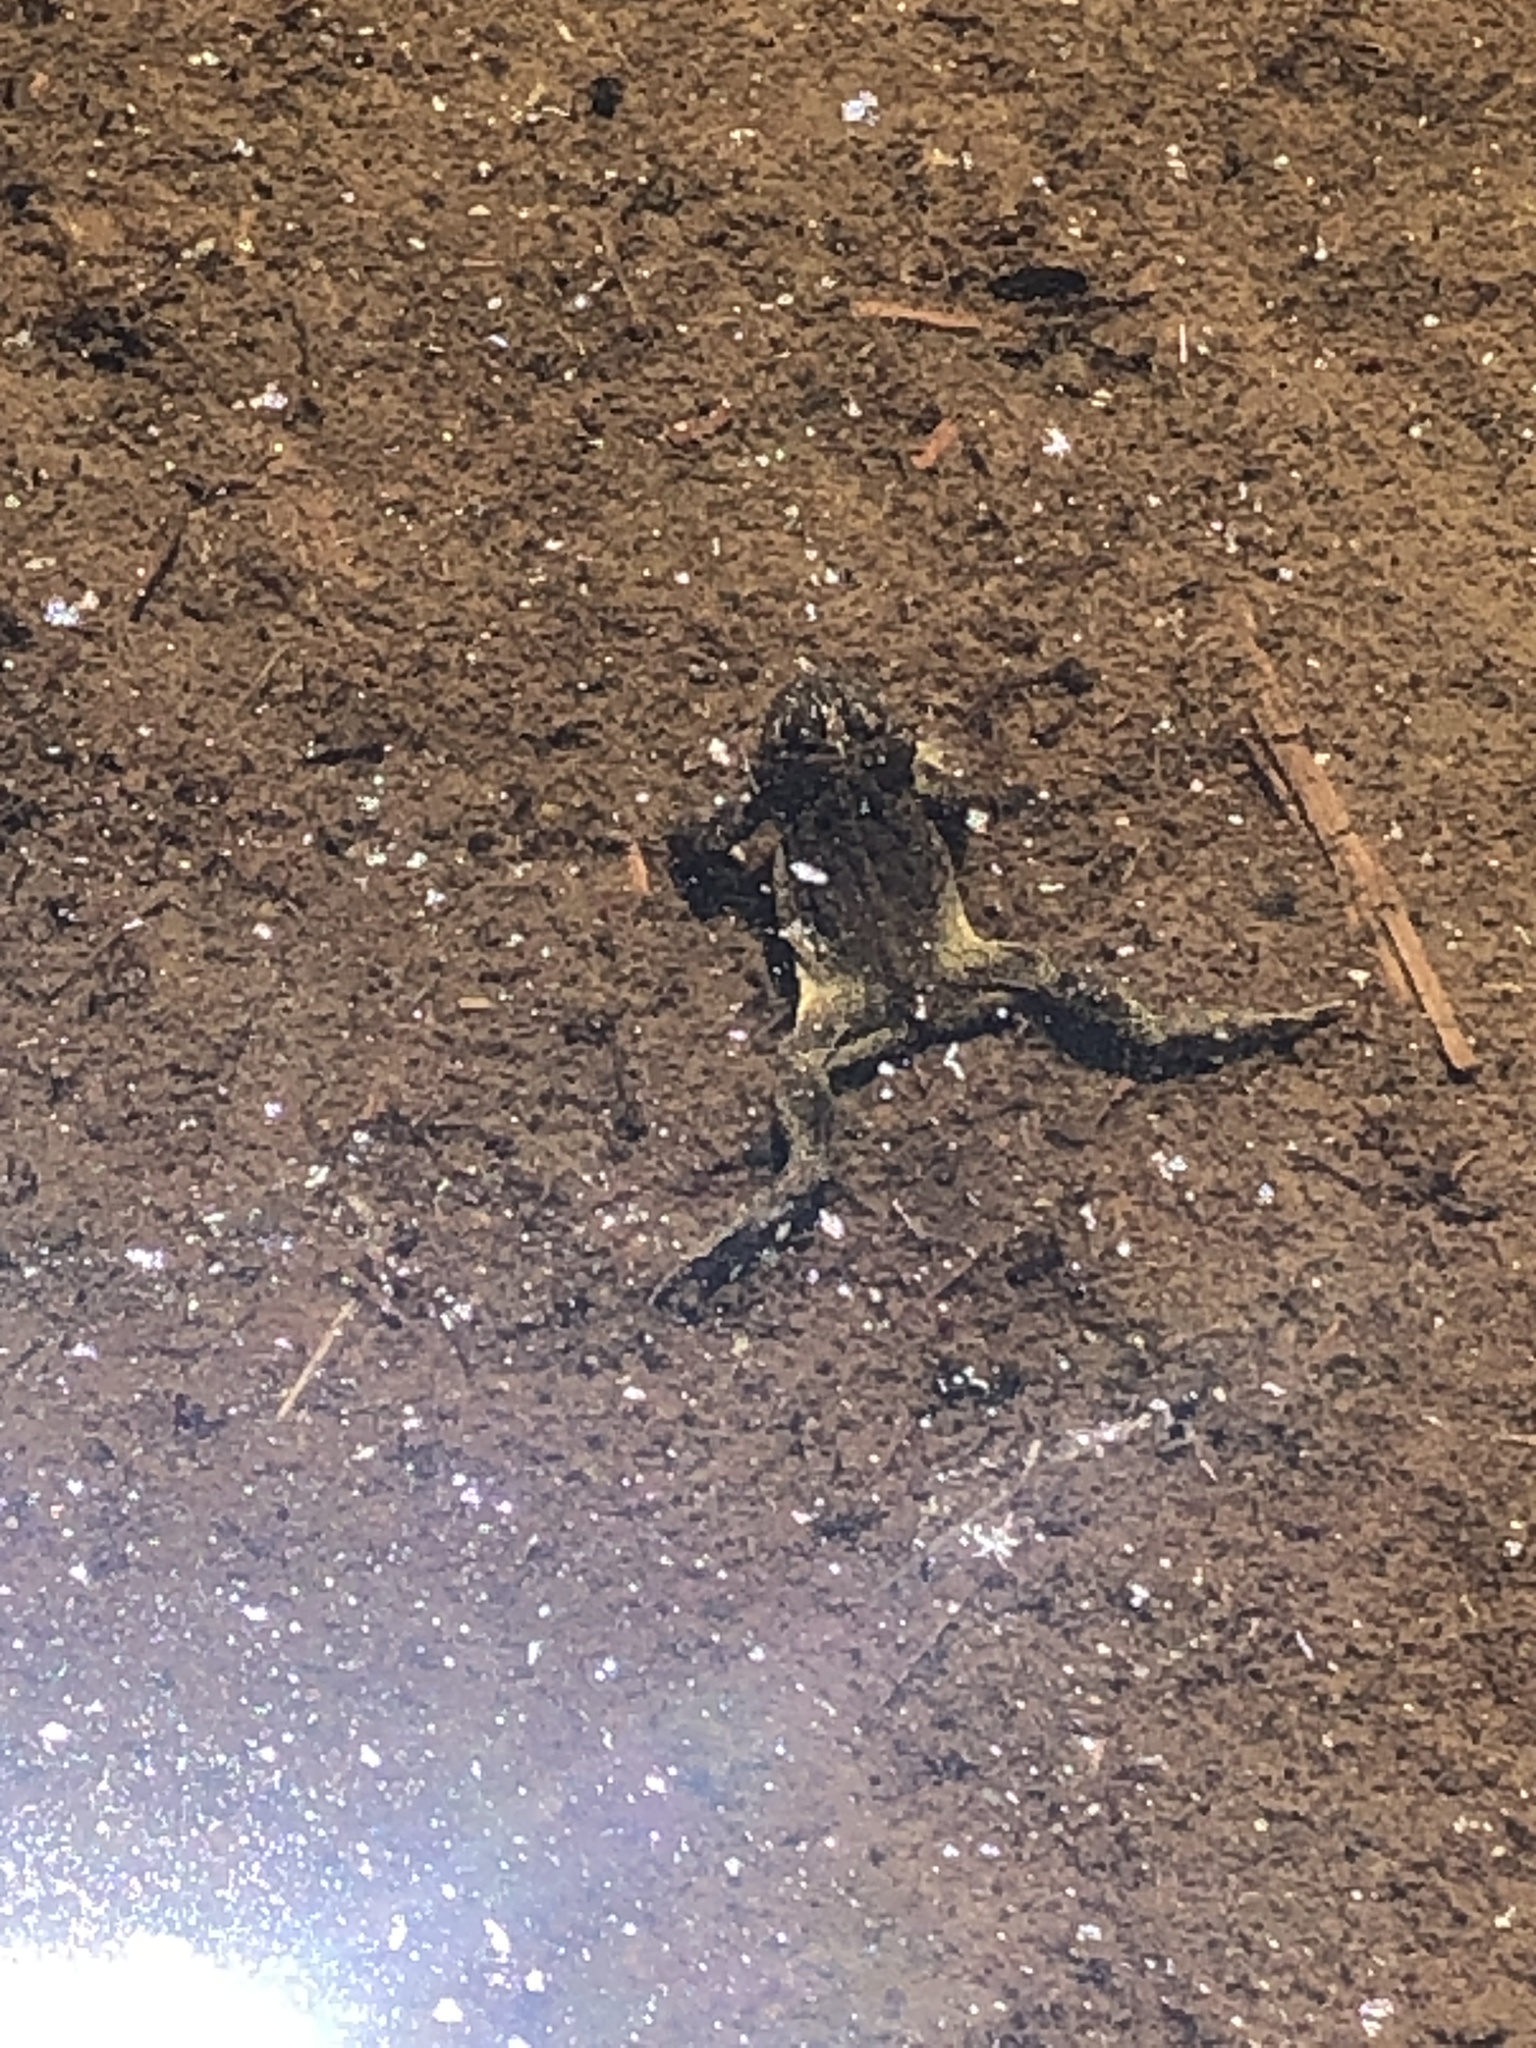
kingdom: Animalia
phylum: Chordata
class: Amphibia
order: Anura
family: Bufonidae
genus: Anaxyrus
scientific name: Anaxyrus canorus
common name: Yosemite toad
